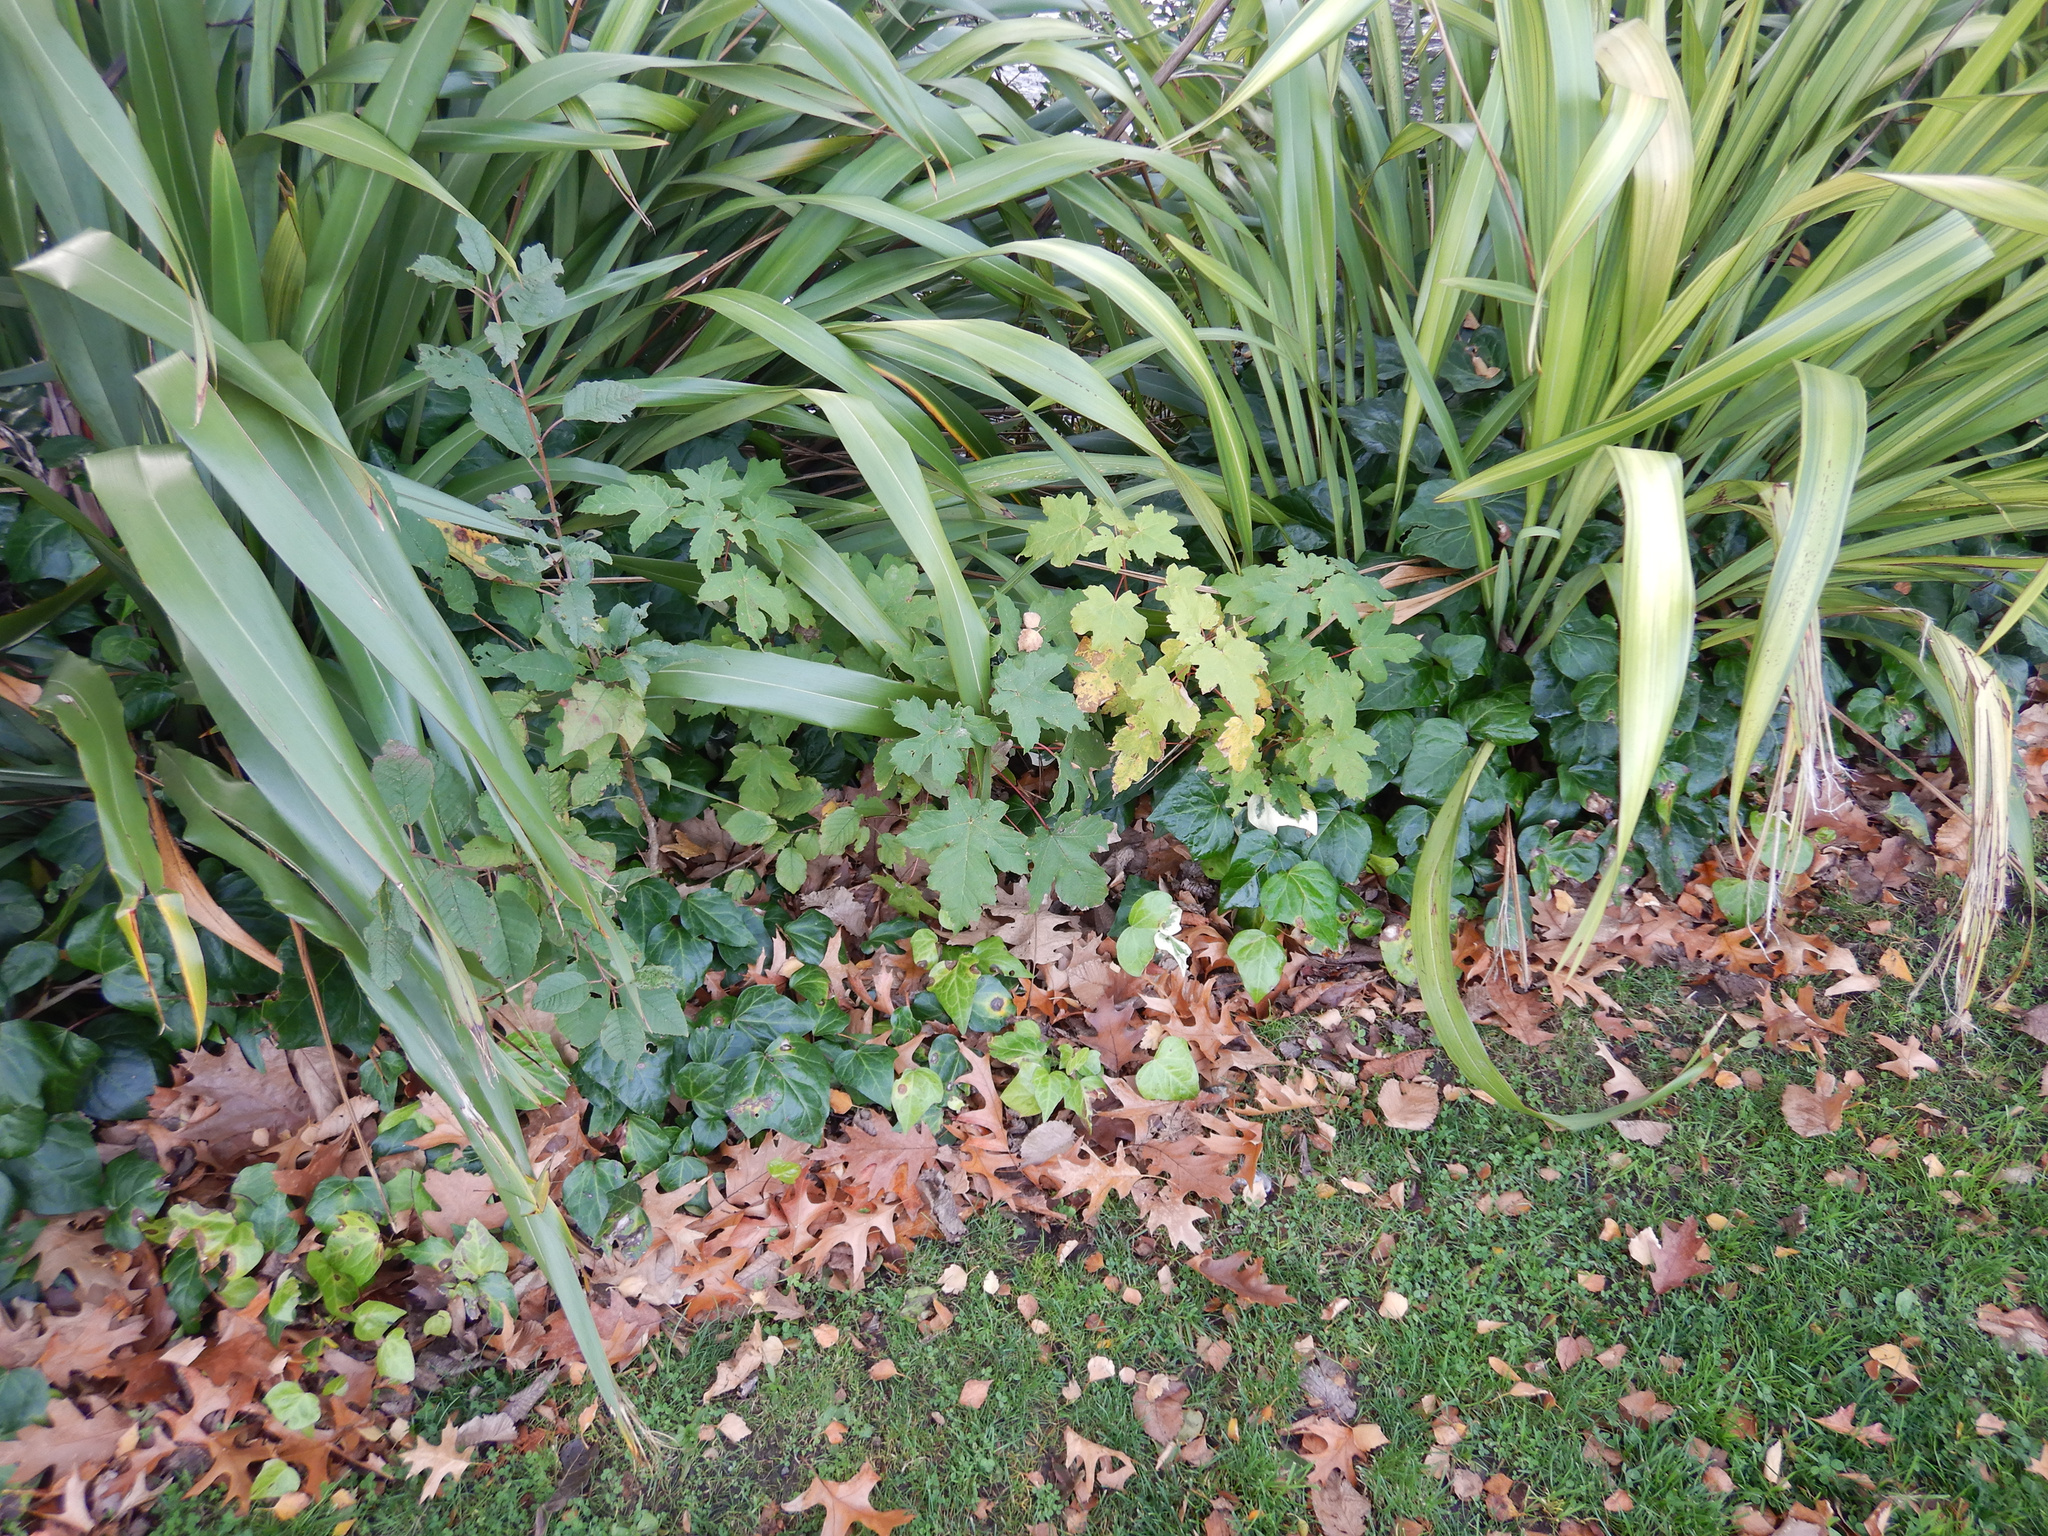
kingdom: Plantae
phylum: Tracheophyta
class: Magnoliopsida
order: Sapindales
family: Sapindaceae
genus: Acer
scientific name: Acer pseudoplatanus
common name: Sycamore
